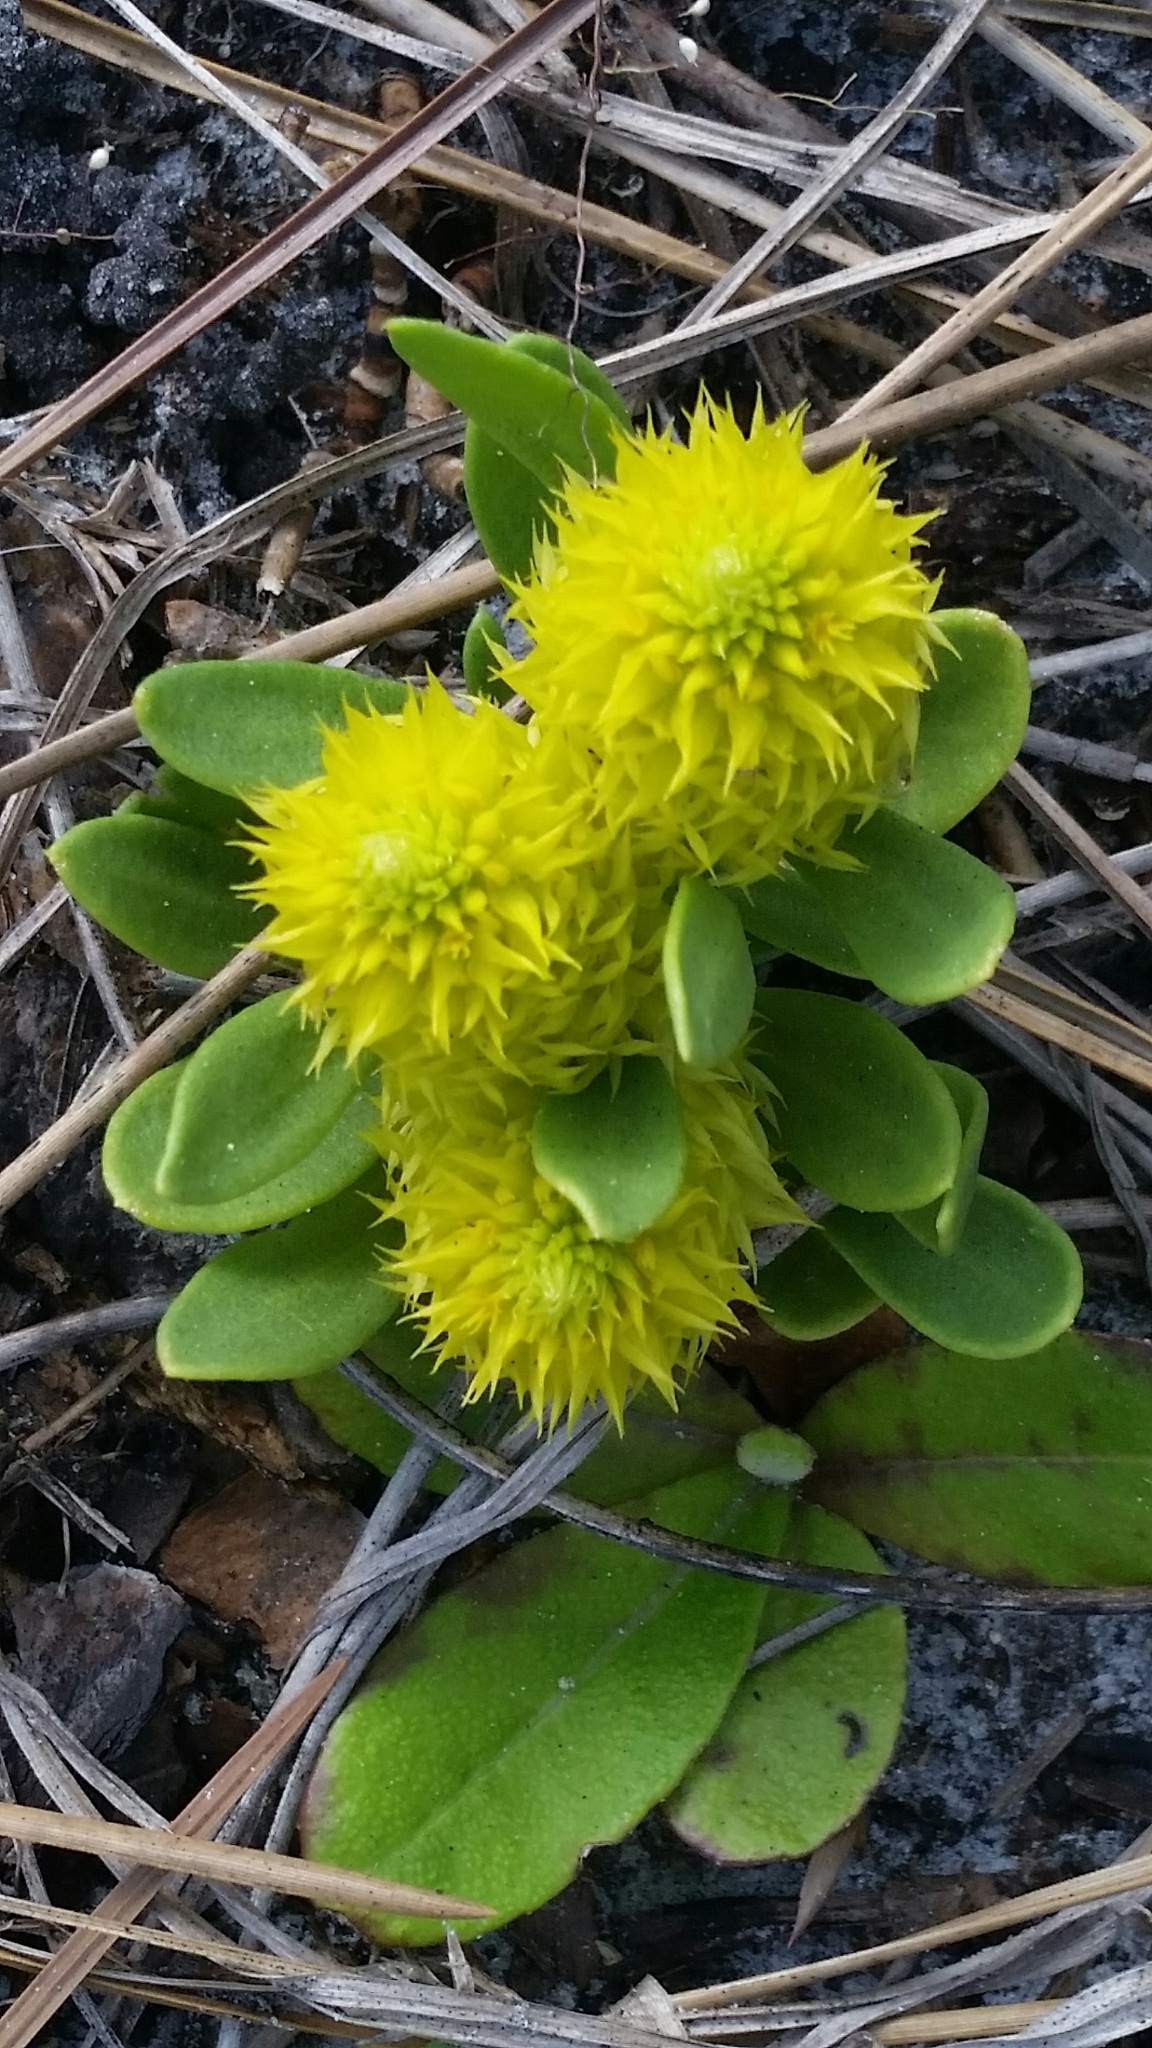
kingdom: Plantae
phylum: Tracheophyta
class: Magnoliopsida
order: Fabales
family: Polygalaceae
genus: Polygala
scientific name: Polygala nana
